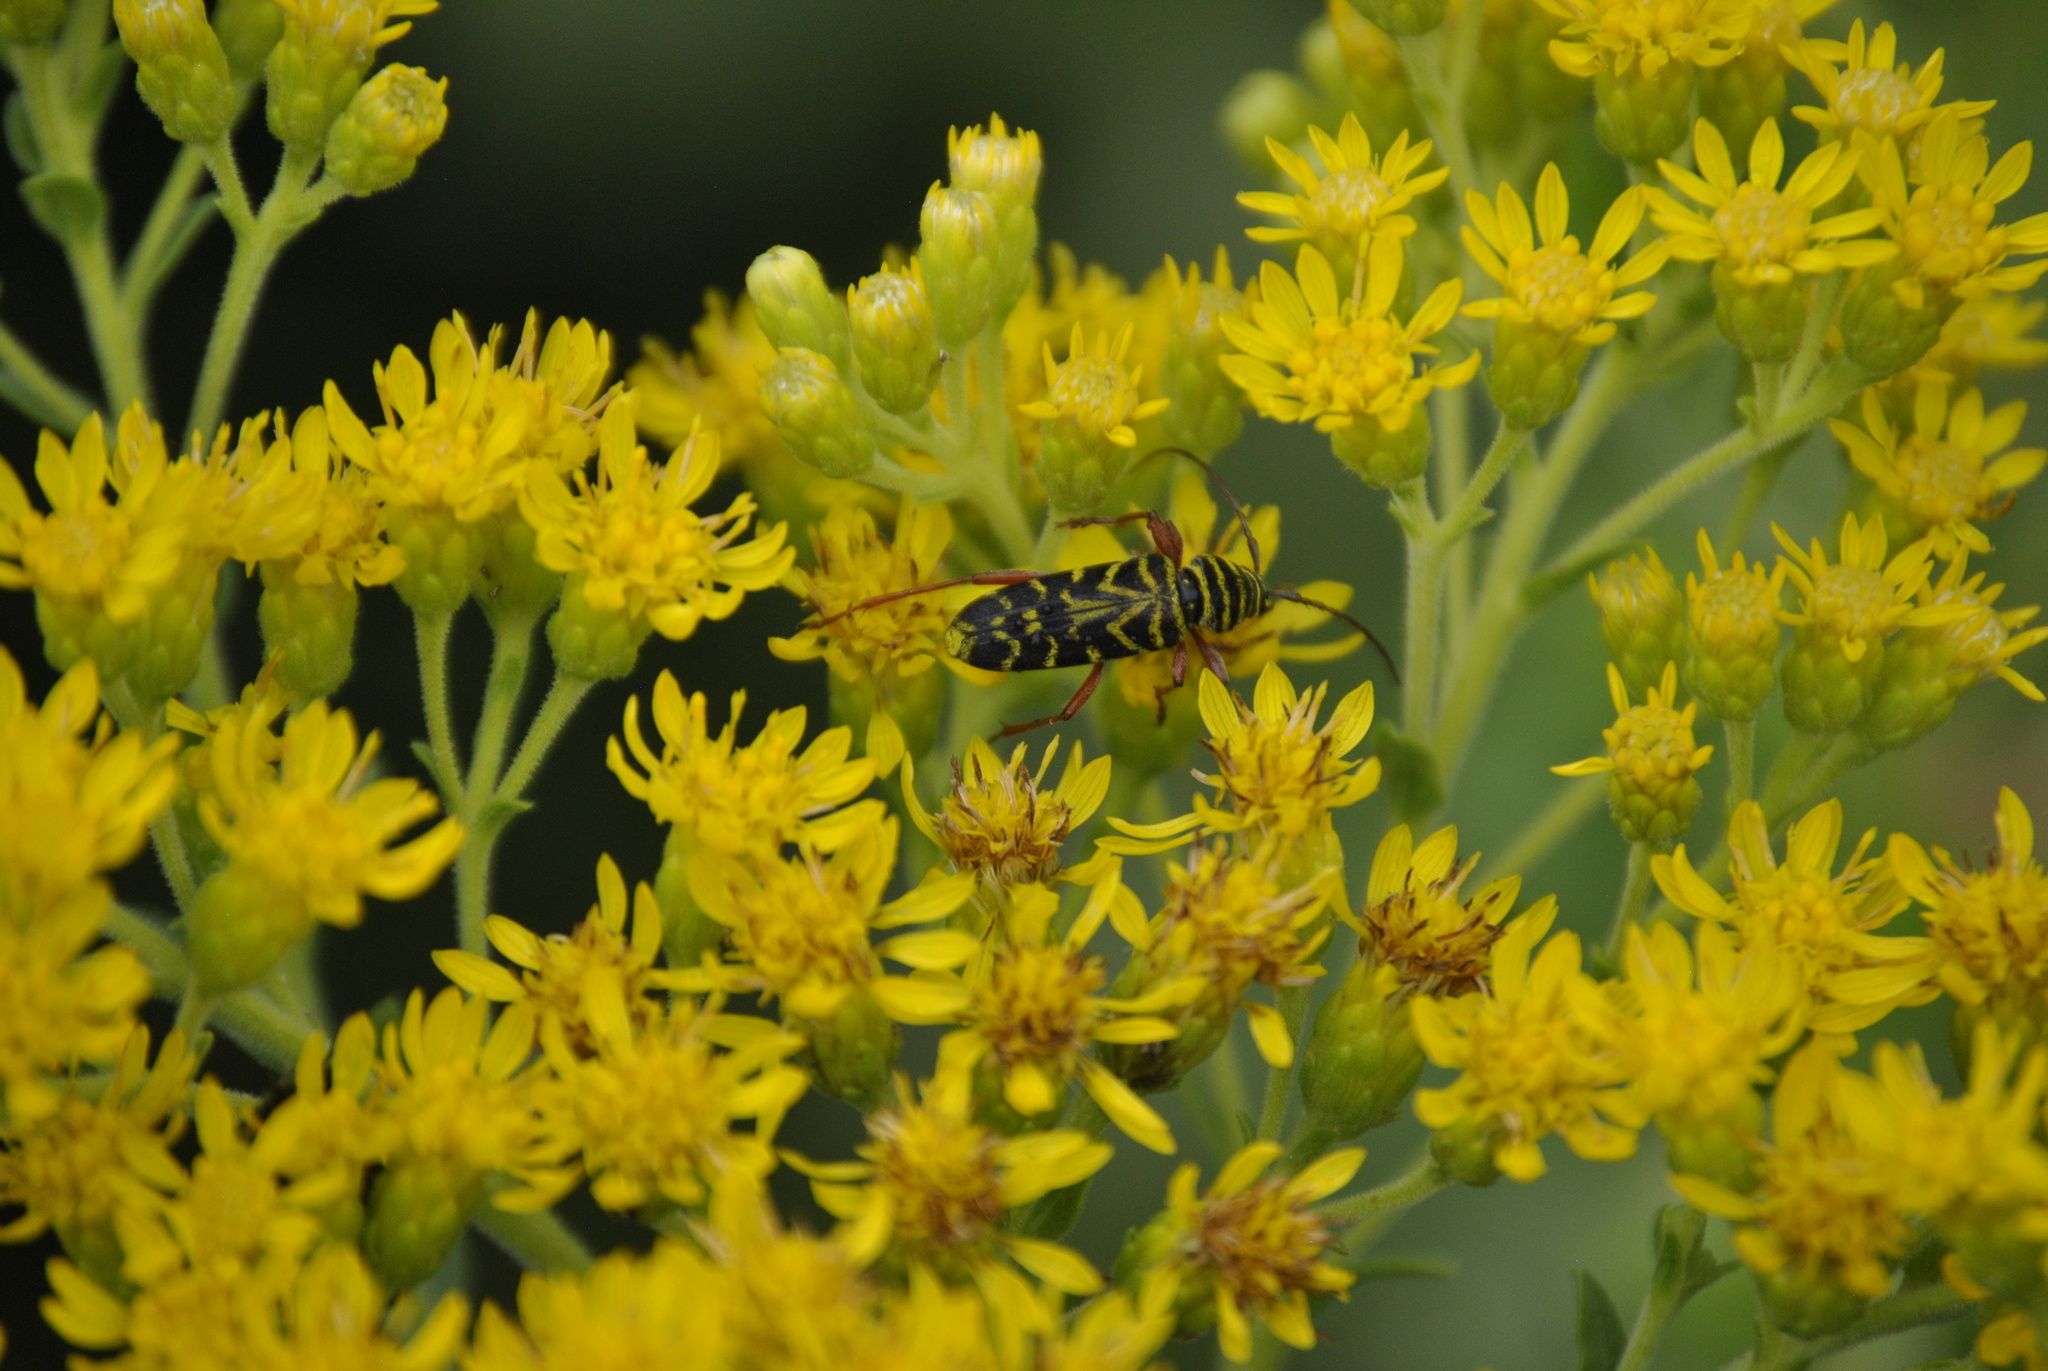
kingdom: Animalia
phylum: Arthropoda
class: Insecta
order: Coleoptera
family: Cerambycidae
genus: Megacyllene
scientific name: Megacyllene robiniae
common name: Locust borer
